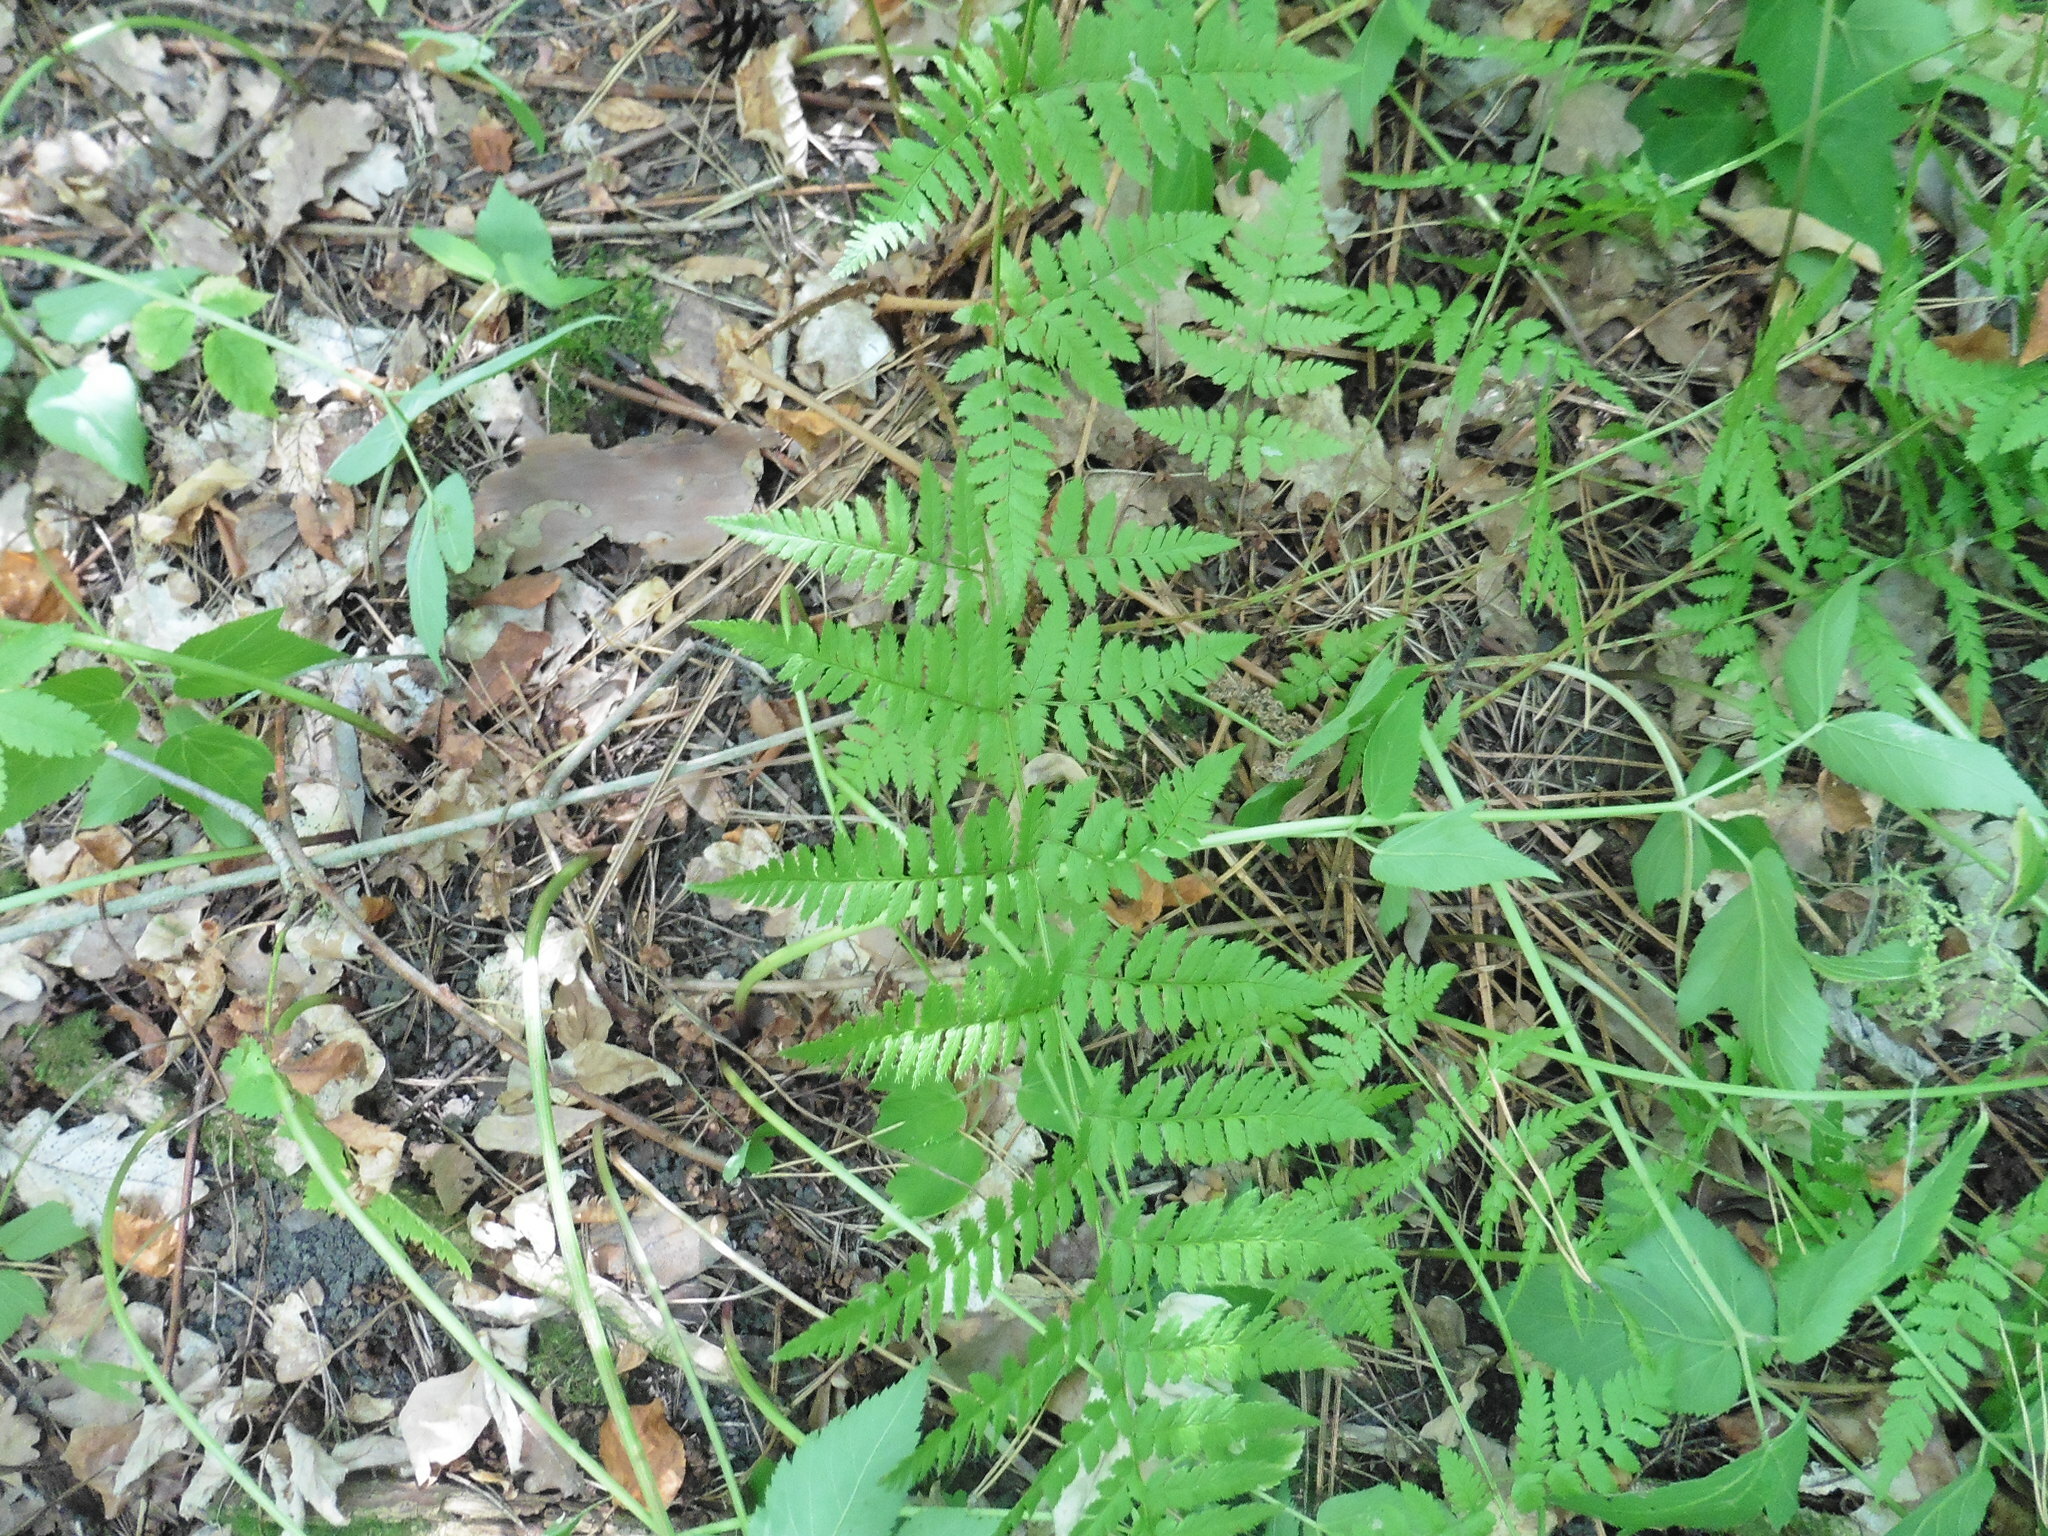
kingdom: Plantae
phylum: Tracheophyta
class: Polypodiopsida
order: Polypodiales
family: Dryopteridaceae
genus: Dryopteris
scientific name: Dryopteris carthusiana
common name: Narrow buckler-fern
